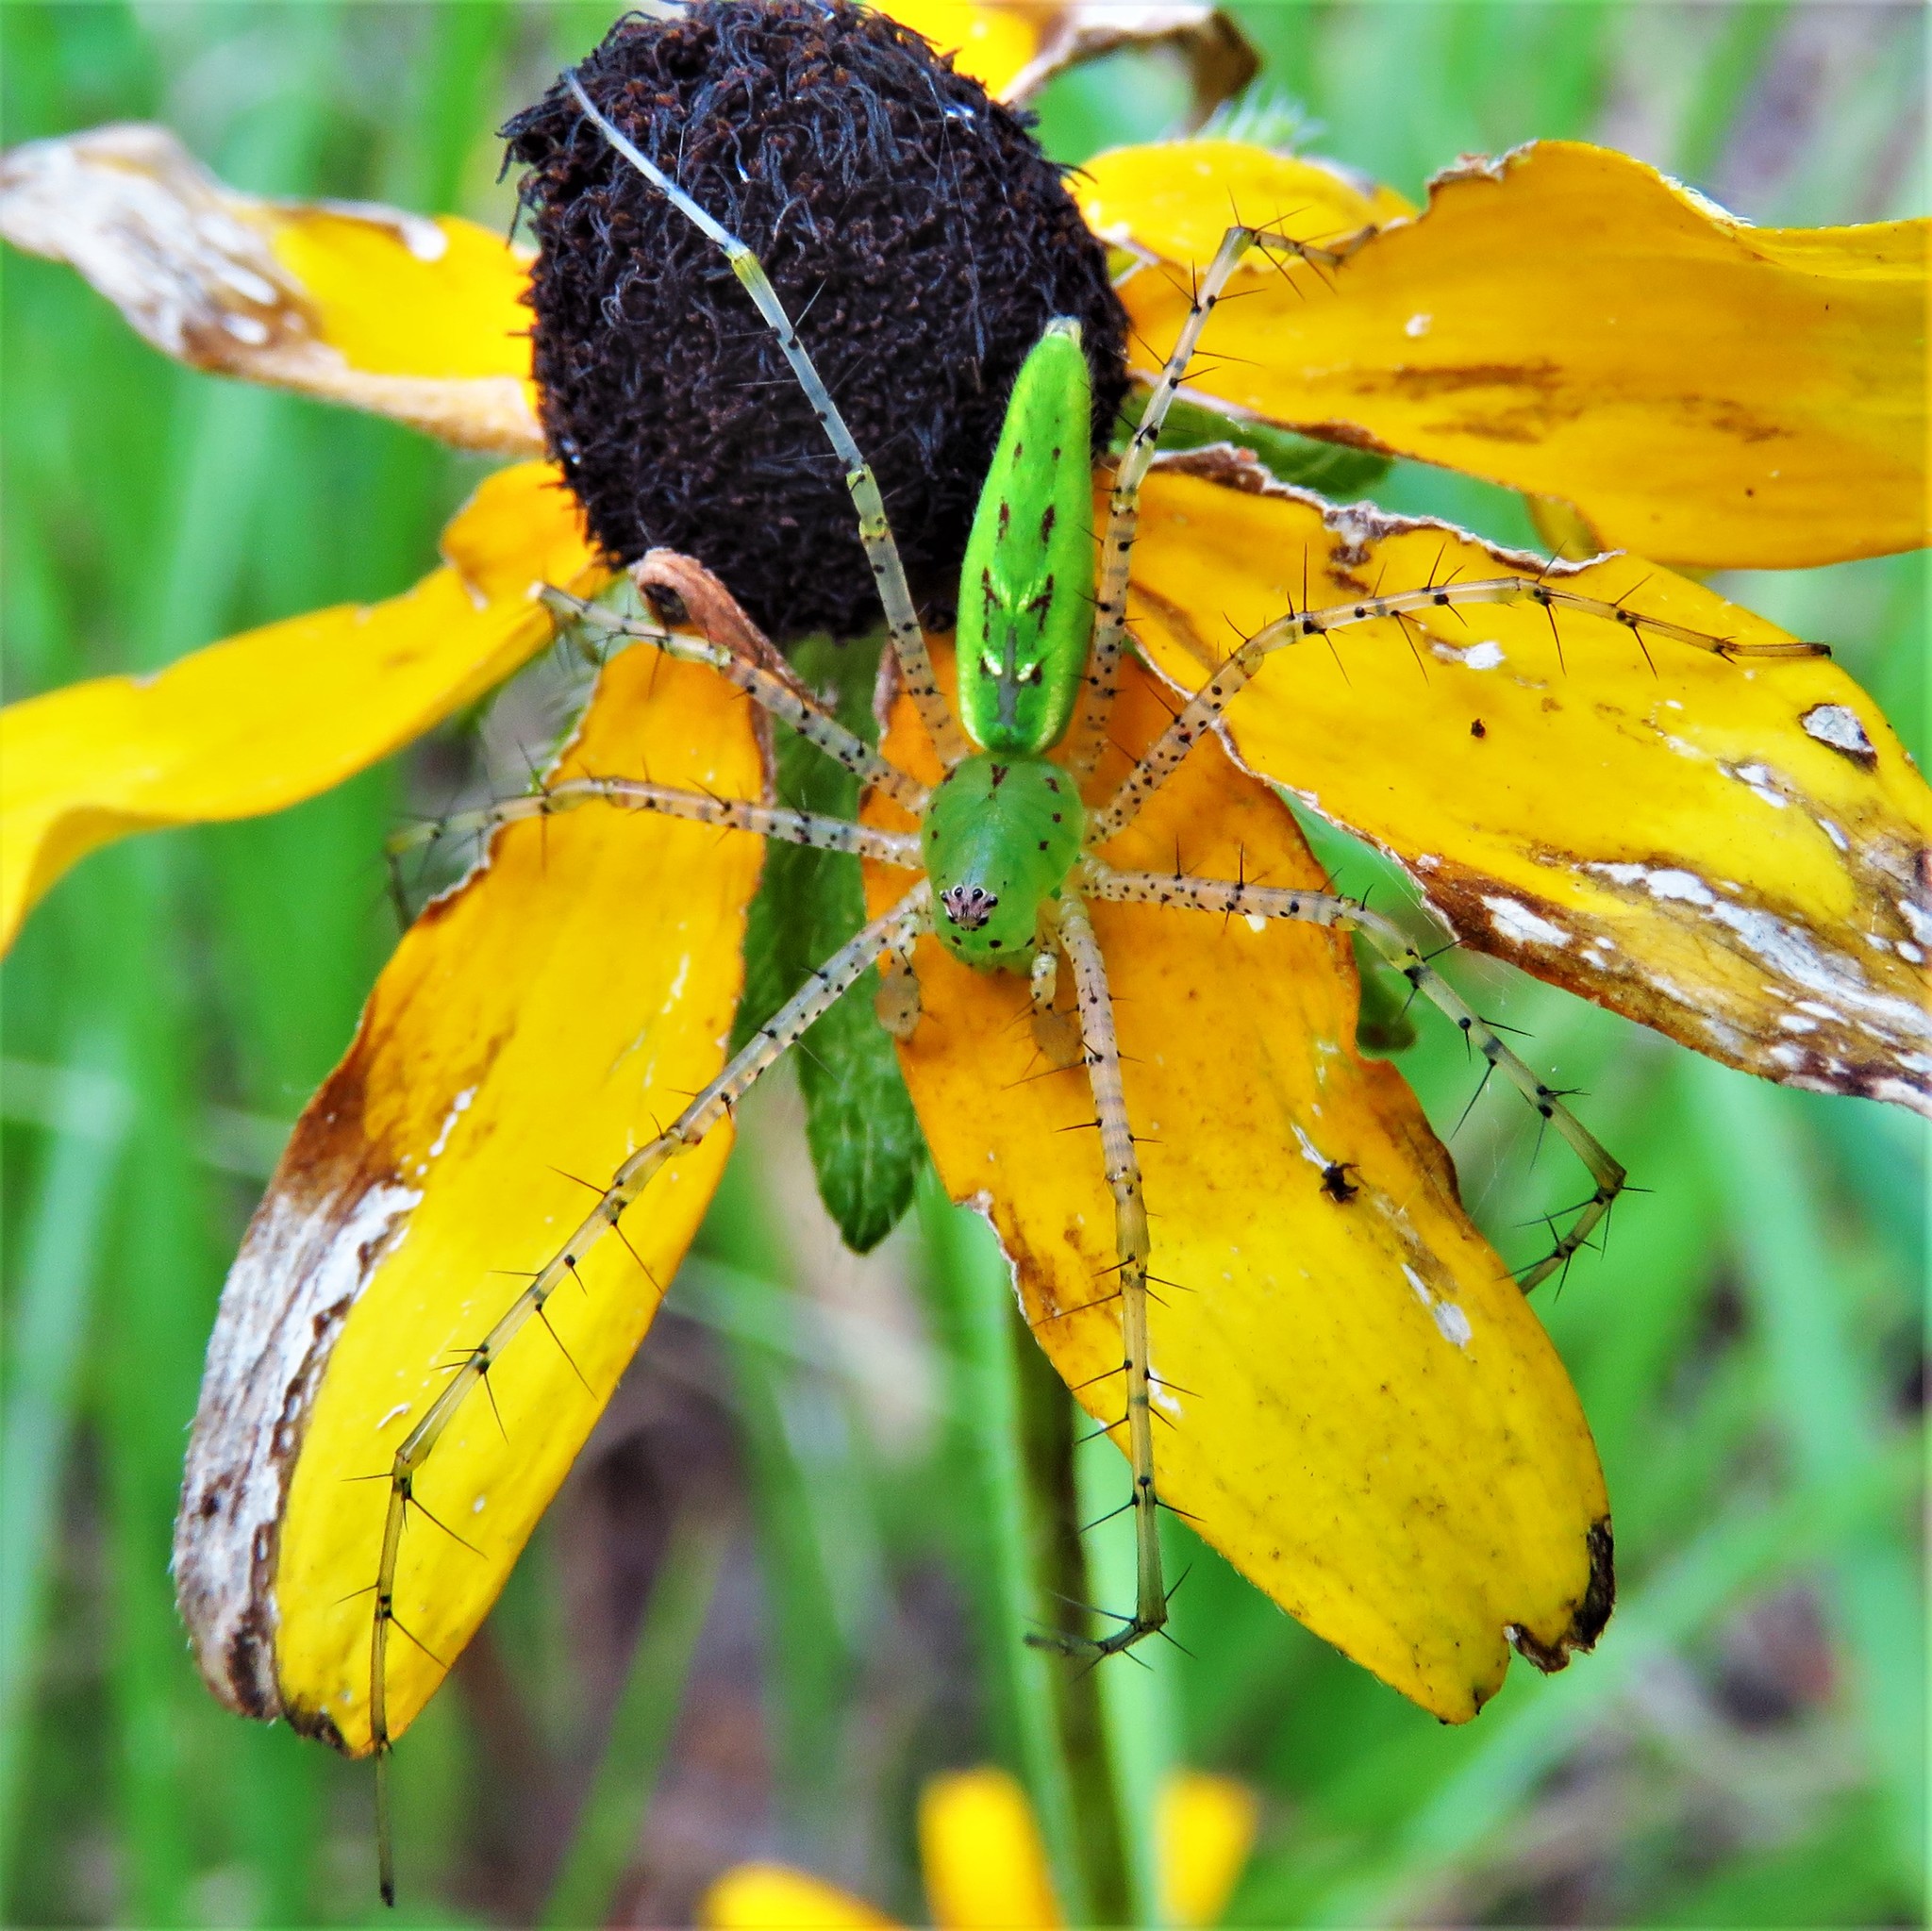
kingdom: Animalia
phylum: Arthropoda
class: Arachnida
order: Araneae
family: Oxyopidae
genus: Peucetia
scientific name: Peucetia viridans
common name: Lynx spiders
